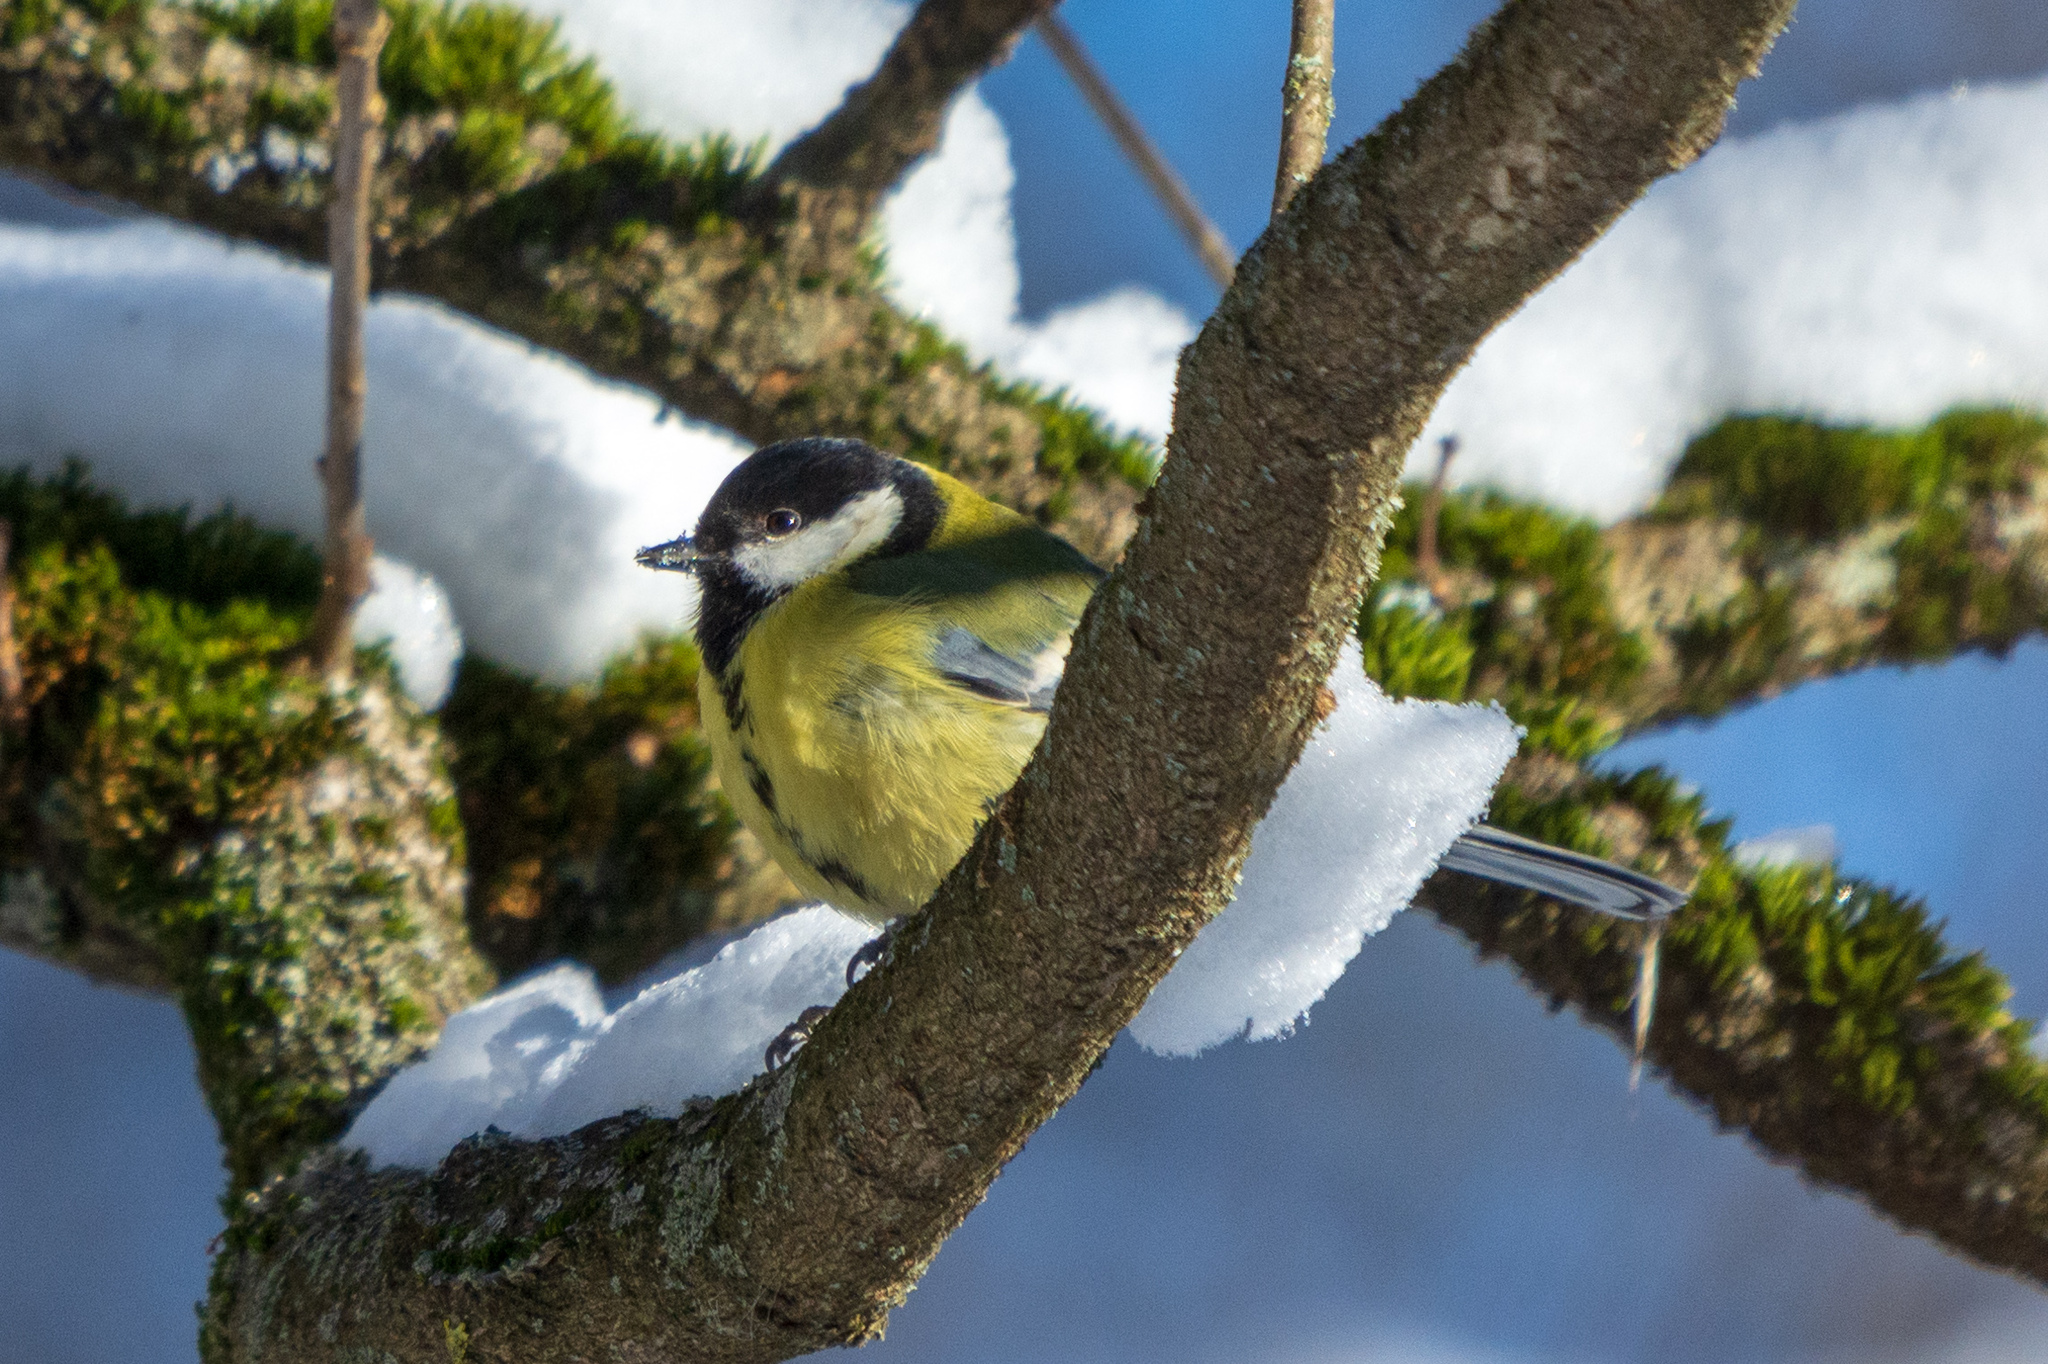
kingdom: Animalia
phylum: Chordata
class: Aves
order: Passeriformes
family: Paridae
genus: Parus
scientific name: Parus major
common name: Great tit
